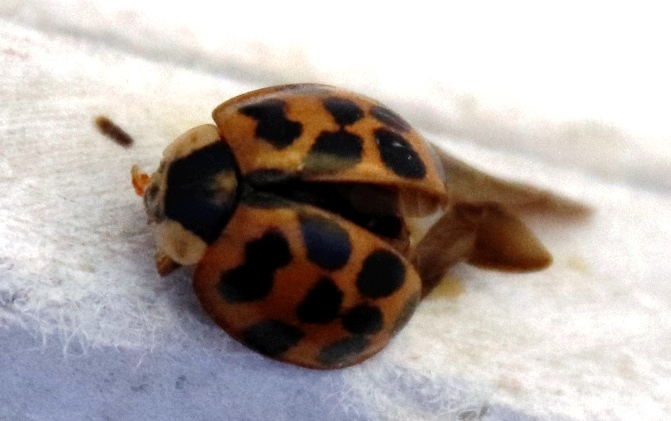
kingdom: Animalia
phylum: Arthropoda
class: Insecta
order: Coleoptera
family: Coccinellidae
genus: Harmonia
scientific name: Harmonia axyridis
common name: Harlequin ladybird
